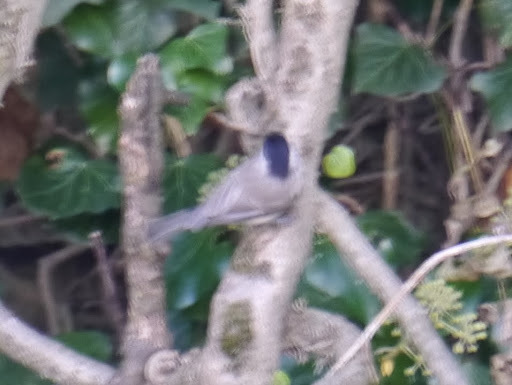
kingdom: Animalia
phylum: Chordata
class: Aves
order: Passeriformes
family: Paridae
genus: Poecile
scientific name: Poecile palustris
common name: Marsh tit
